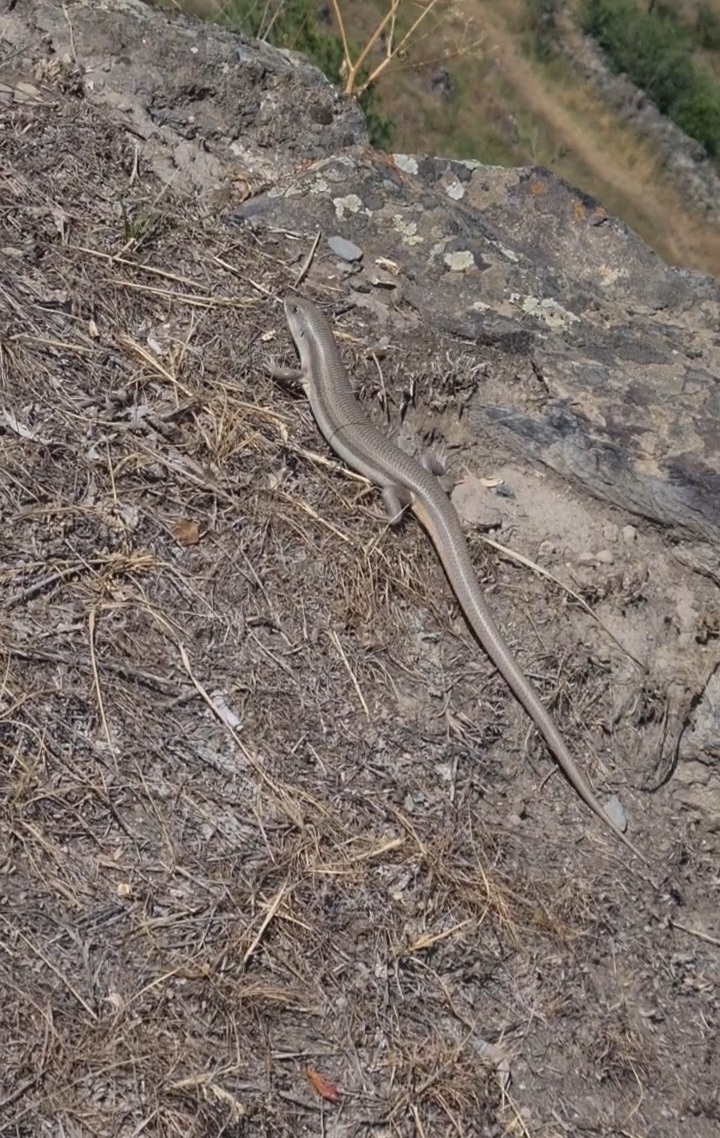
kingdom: Animalia
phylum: Chordata
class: Squamata
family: Scincidae
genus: Eumeces
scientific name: Eumeces schneiderii
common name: Schneider's skink
